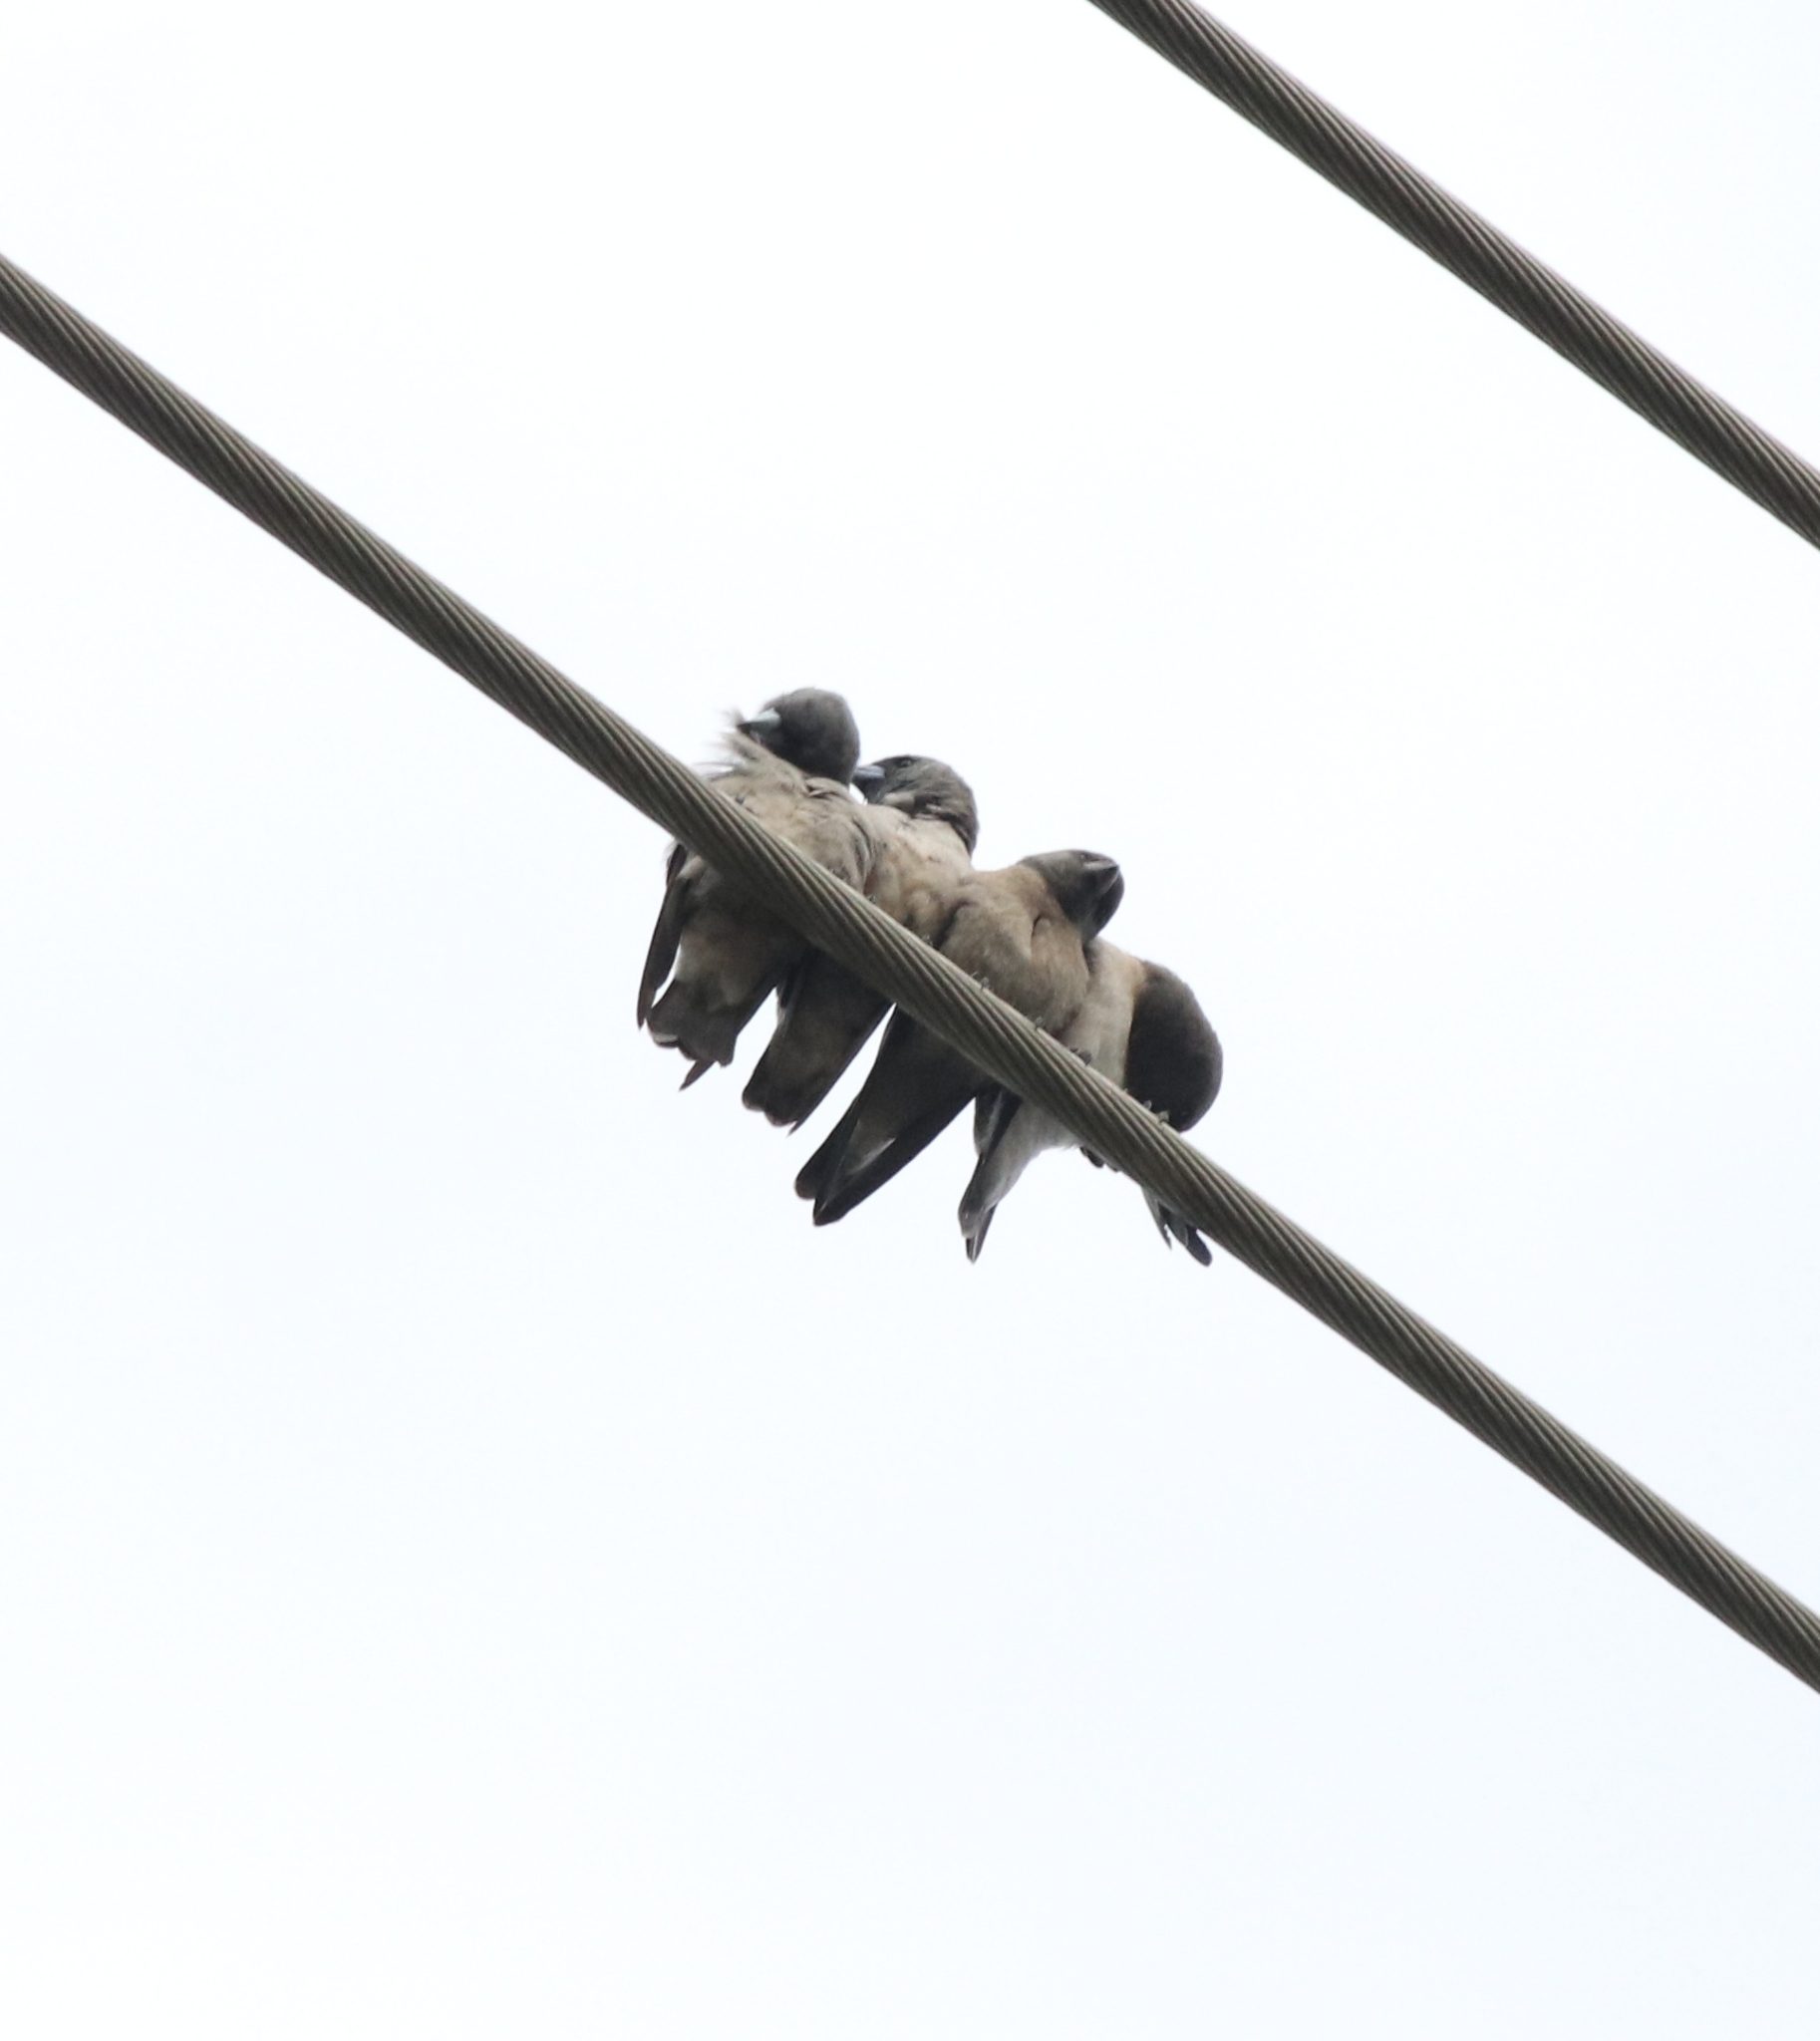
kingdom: Animalia
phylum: Chordata
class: Aves
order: Passeriformes
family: Artamidae
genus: Artamus
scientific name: Artamus fuscus
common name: Ashy woodswallow
